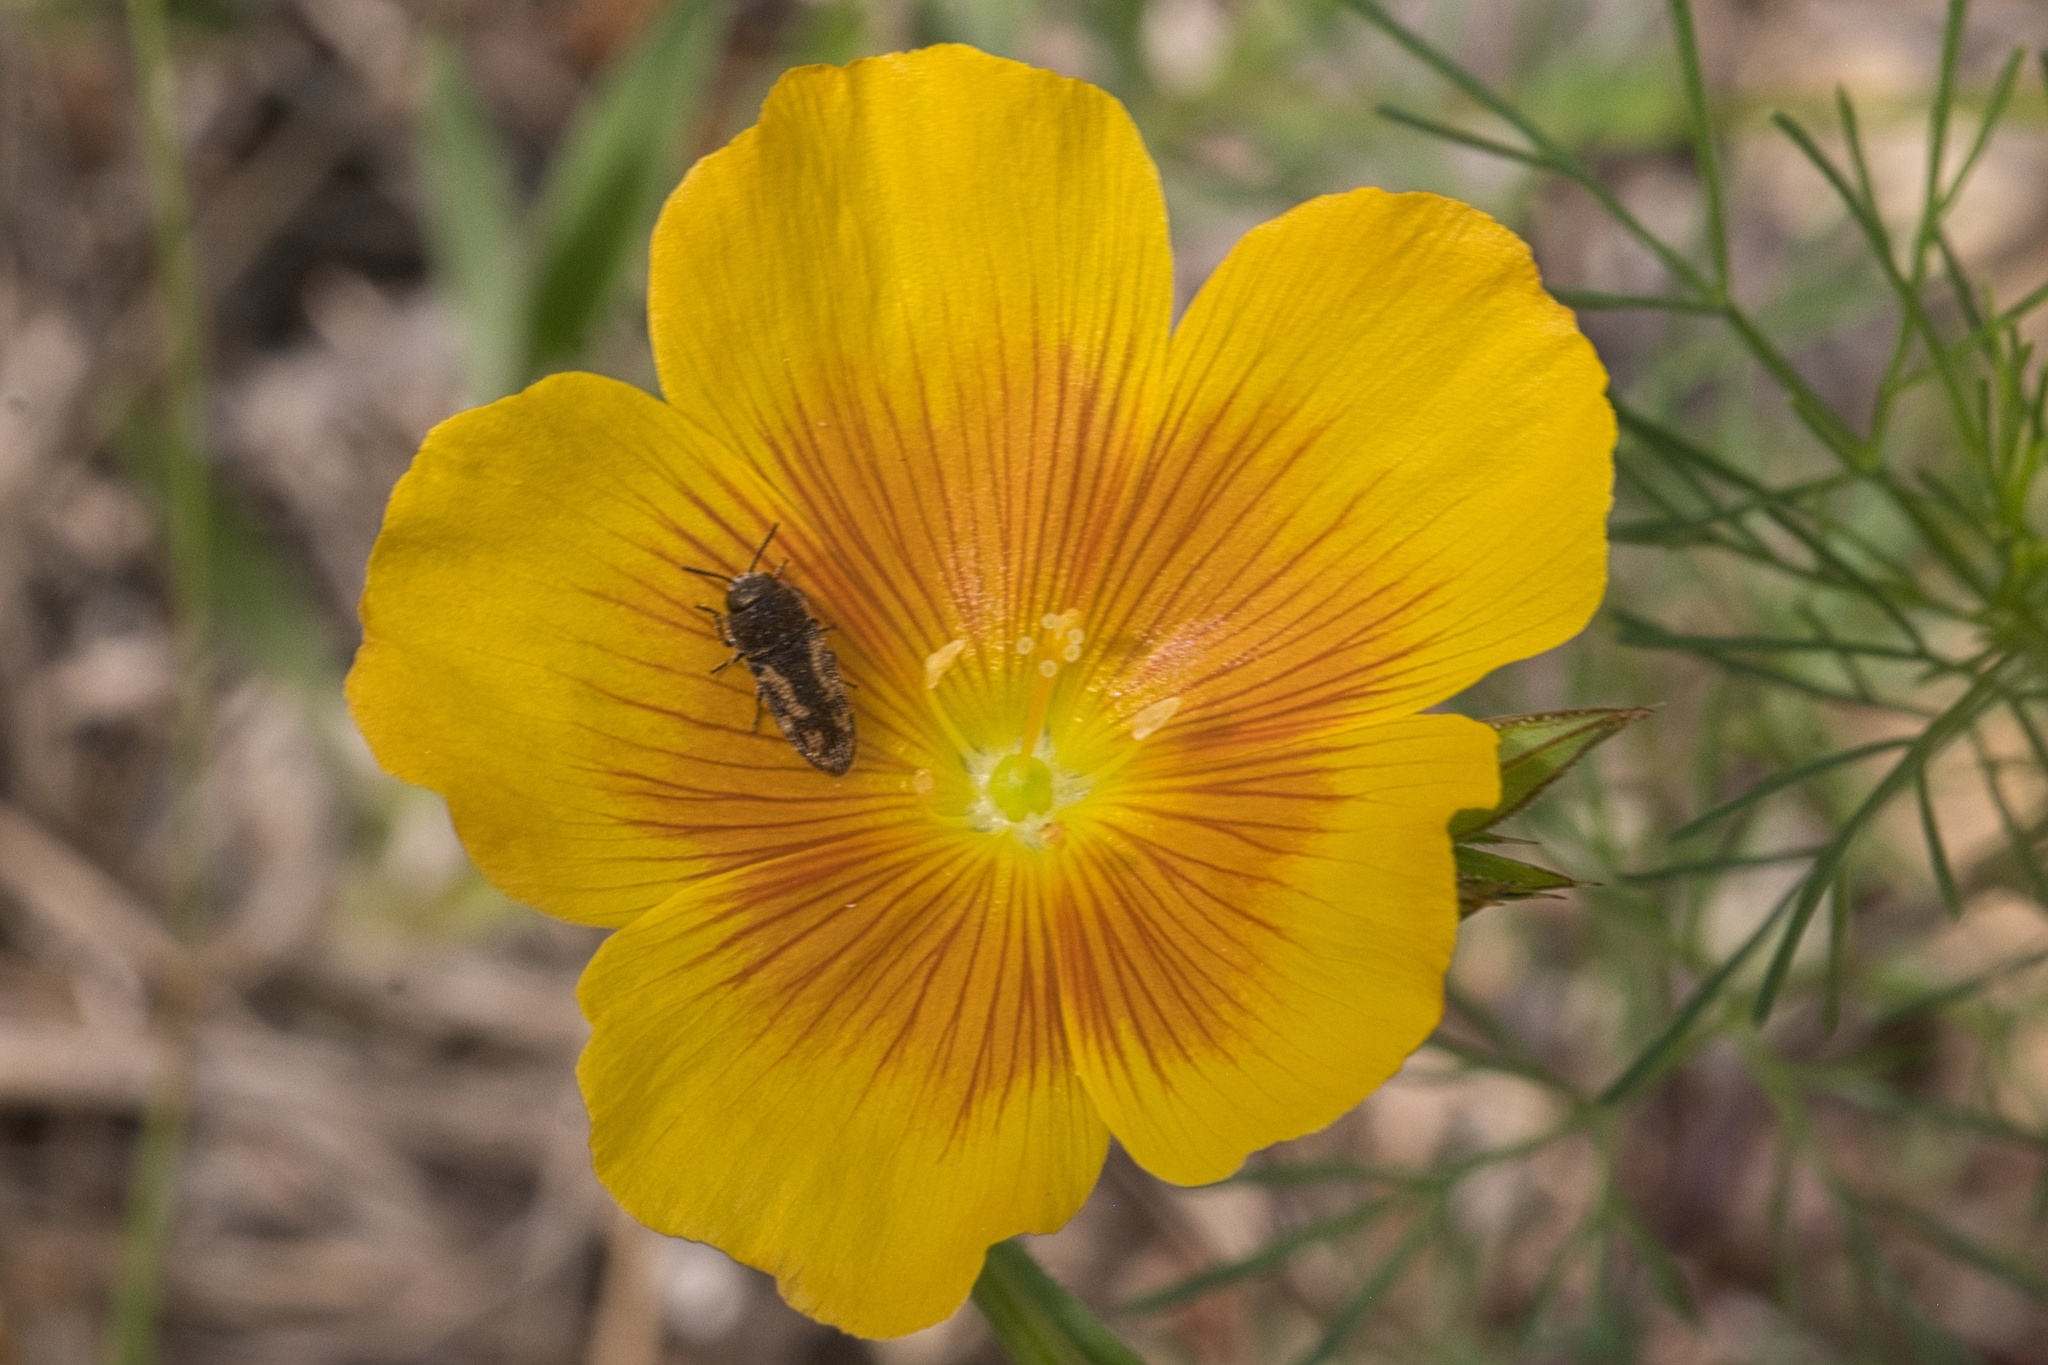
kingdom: Animalia
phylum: Arthropoda
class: Insecta
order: Coleoptera
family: Buprestidae
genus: Acmaeodera
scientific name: Acmaeodera neglecta
